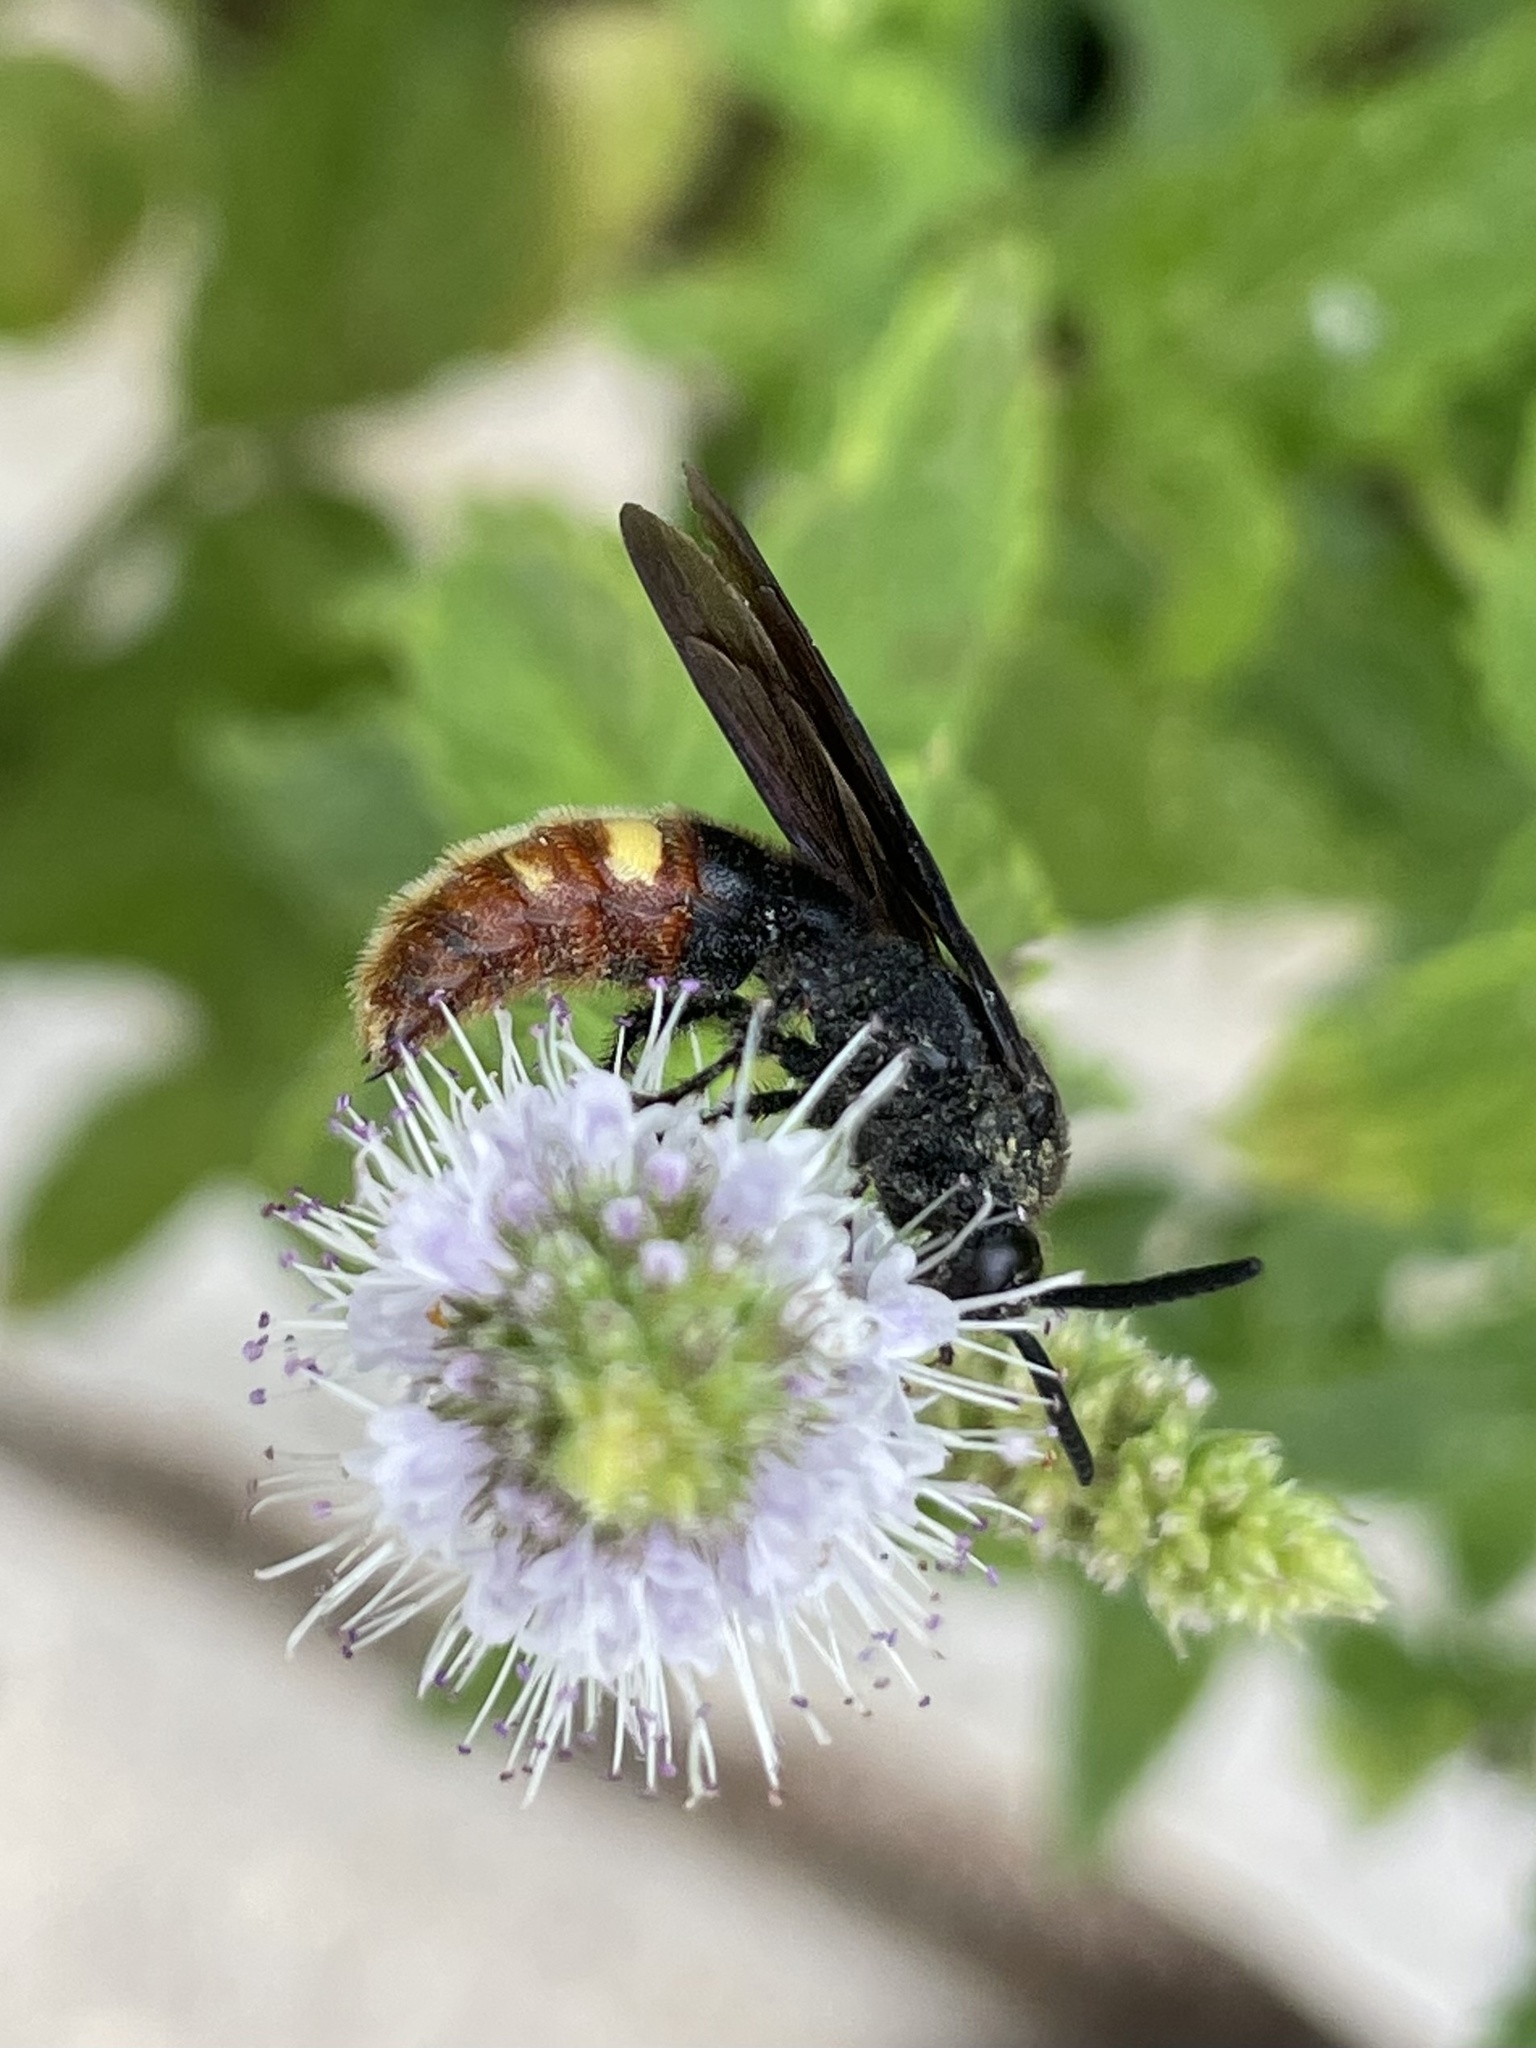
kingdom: Animalia
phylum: Arthropoda
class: Insecta
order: Hymenoptera
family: Scoliidae
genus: Scolia
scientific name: Scolia dubia
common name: Blue-winged scoliid wasp
